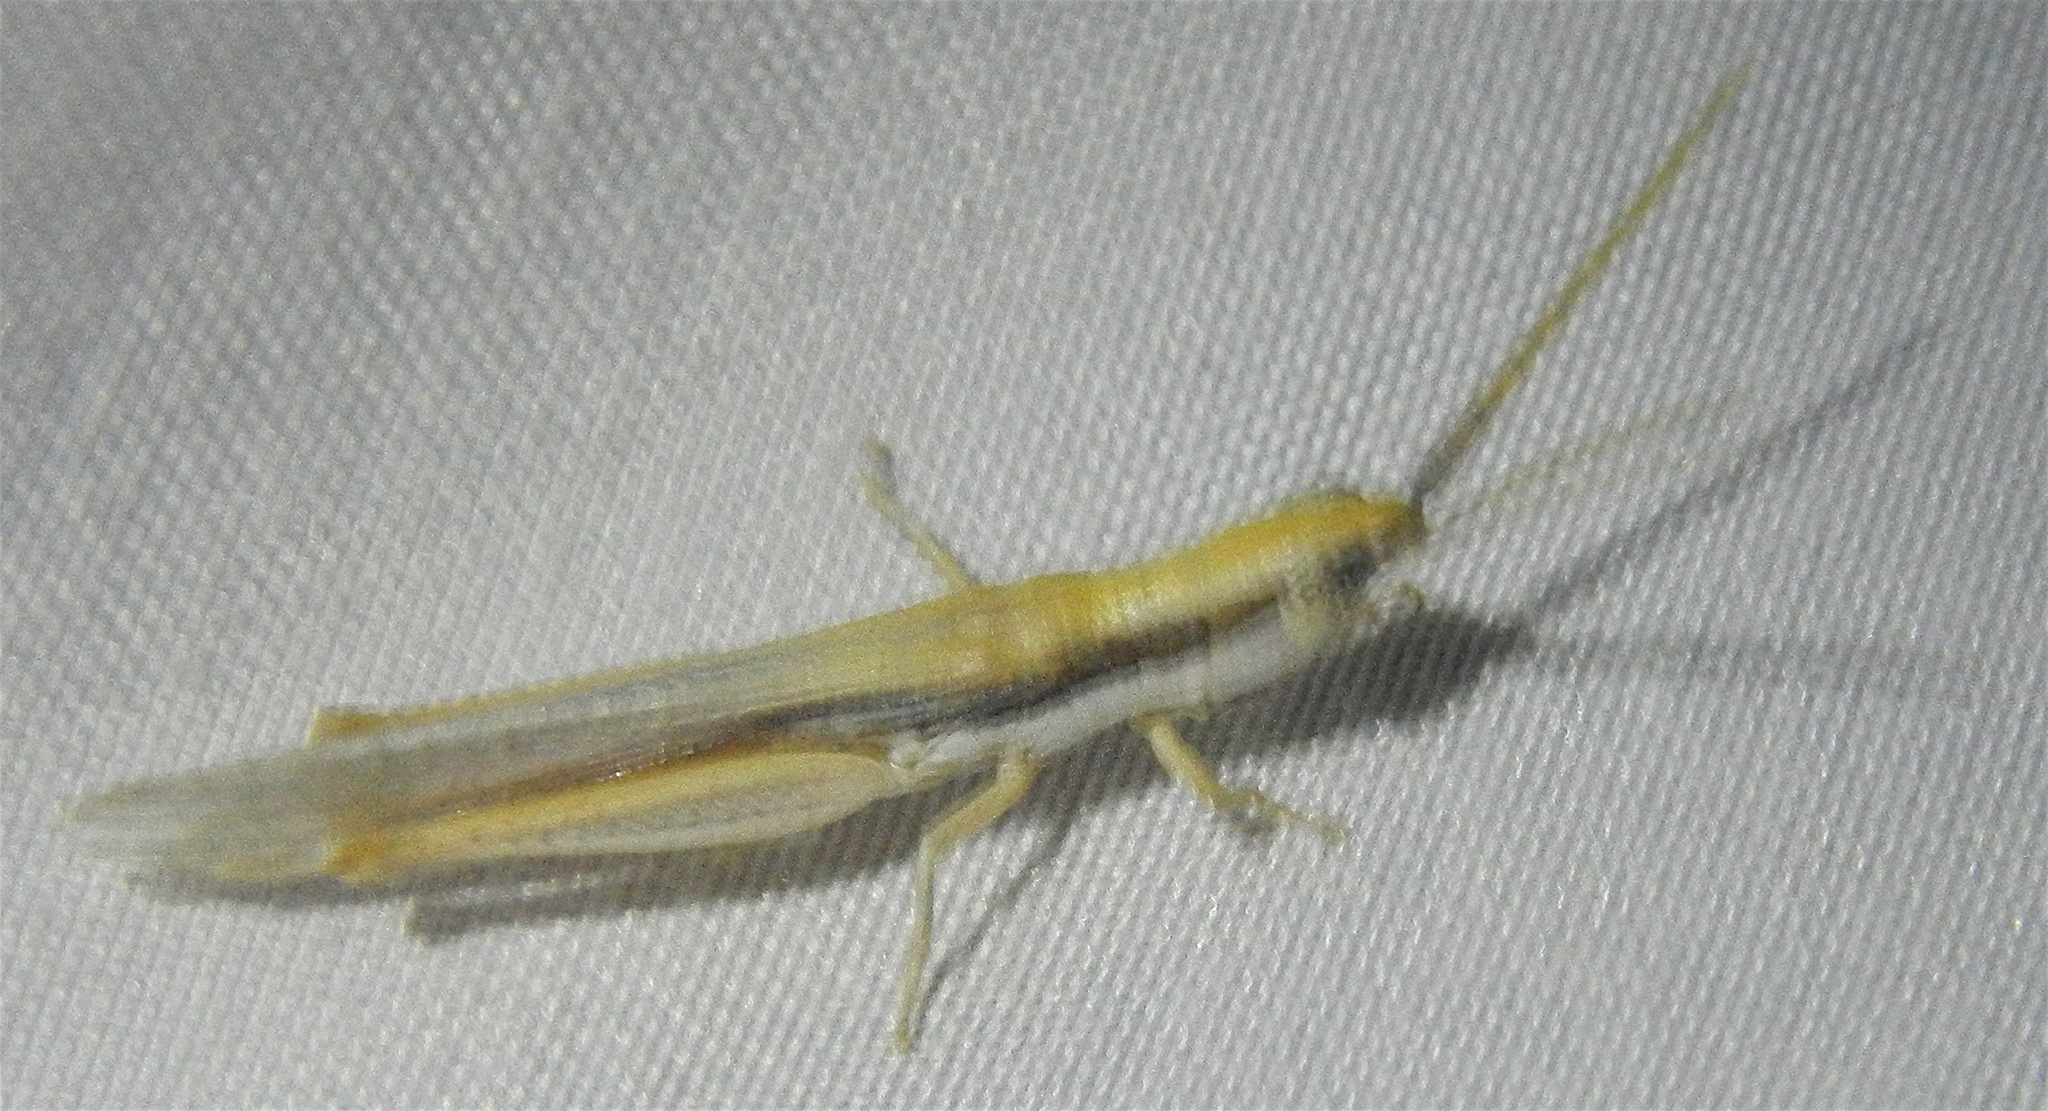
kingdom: Animalia
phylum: Arthropoda
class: Insecta
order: Orthoptera
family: Acrididae
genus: Paropomala
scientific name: Paropomala pallida
